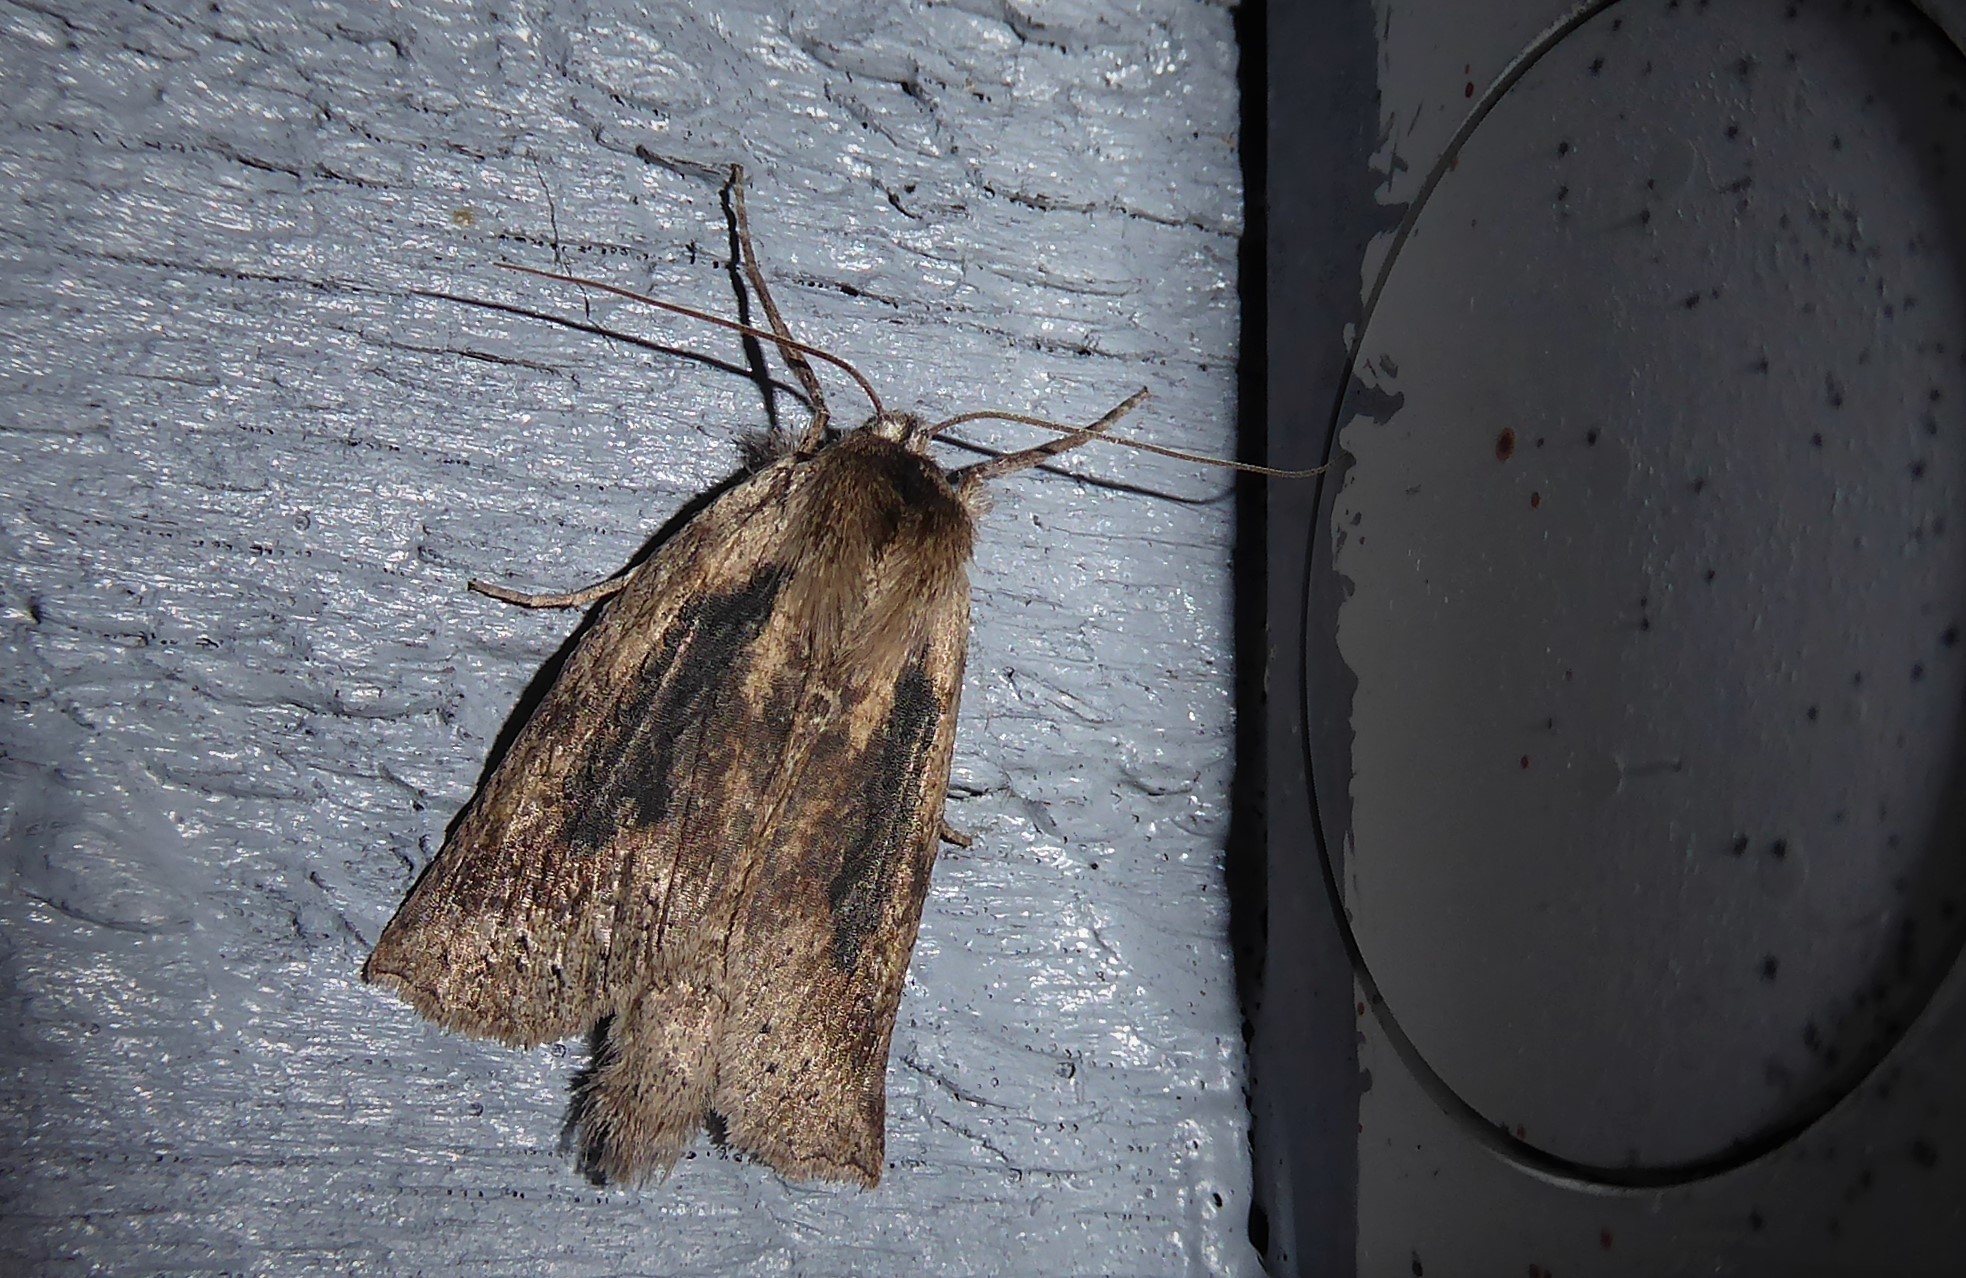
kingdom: Animalia
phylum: Arthropoda
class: Insecta
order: Lepidoptera
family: Geometridae
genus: Declana
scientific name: Declana leptomera
